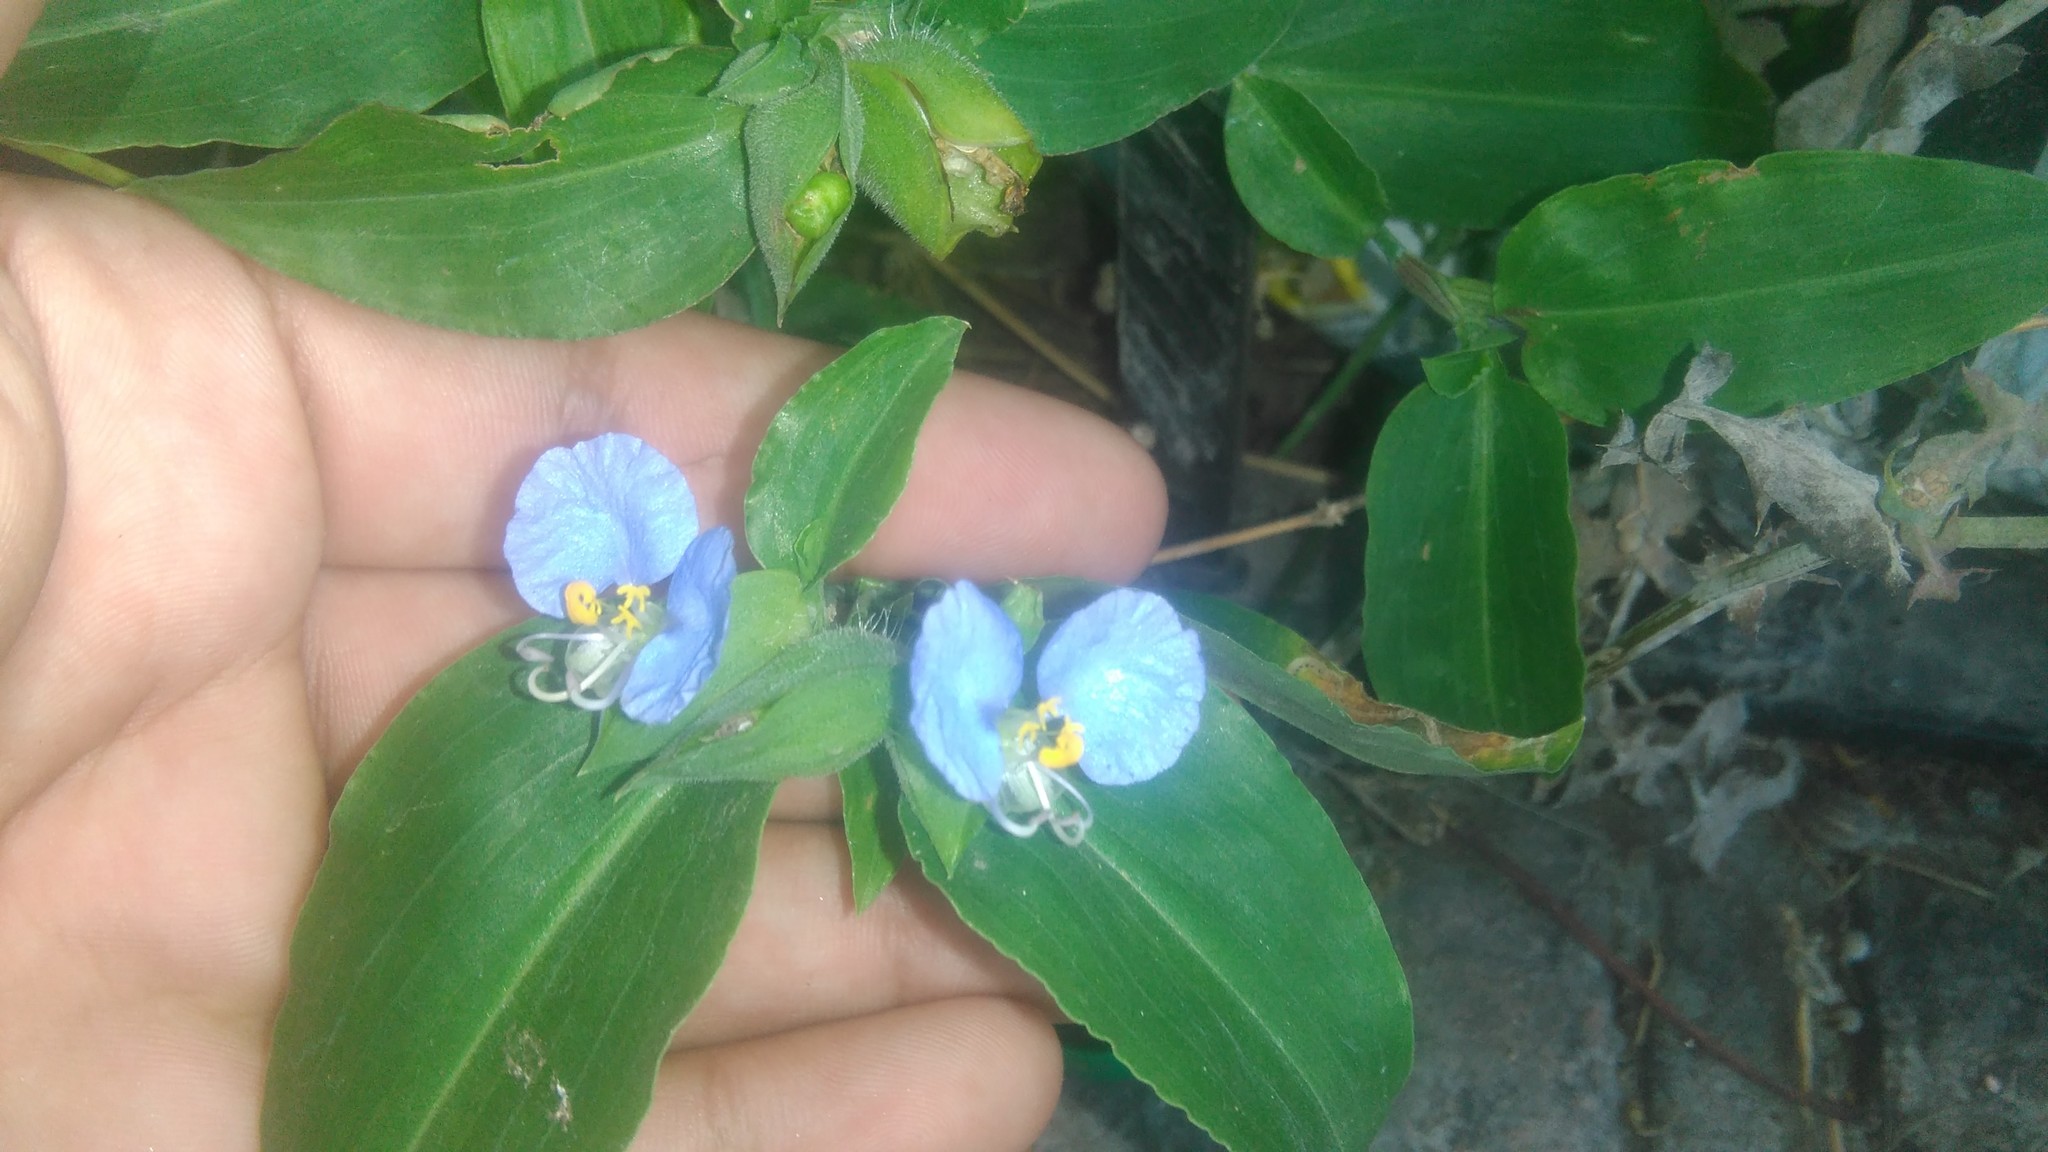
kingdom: Plantae
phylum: Tracheophyta
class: Liliopsida
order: Commelinales
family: Commelinaceae
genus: Commelina
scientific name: Commelina erecta
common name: Blousel blommetjie
